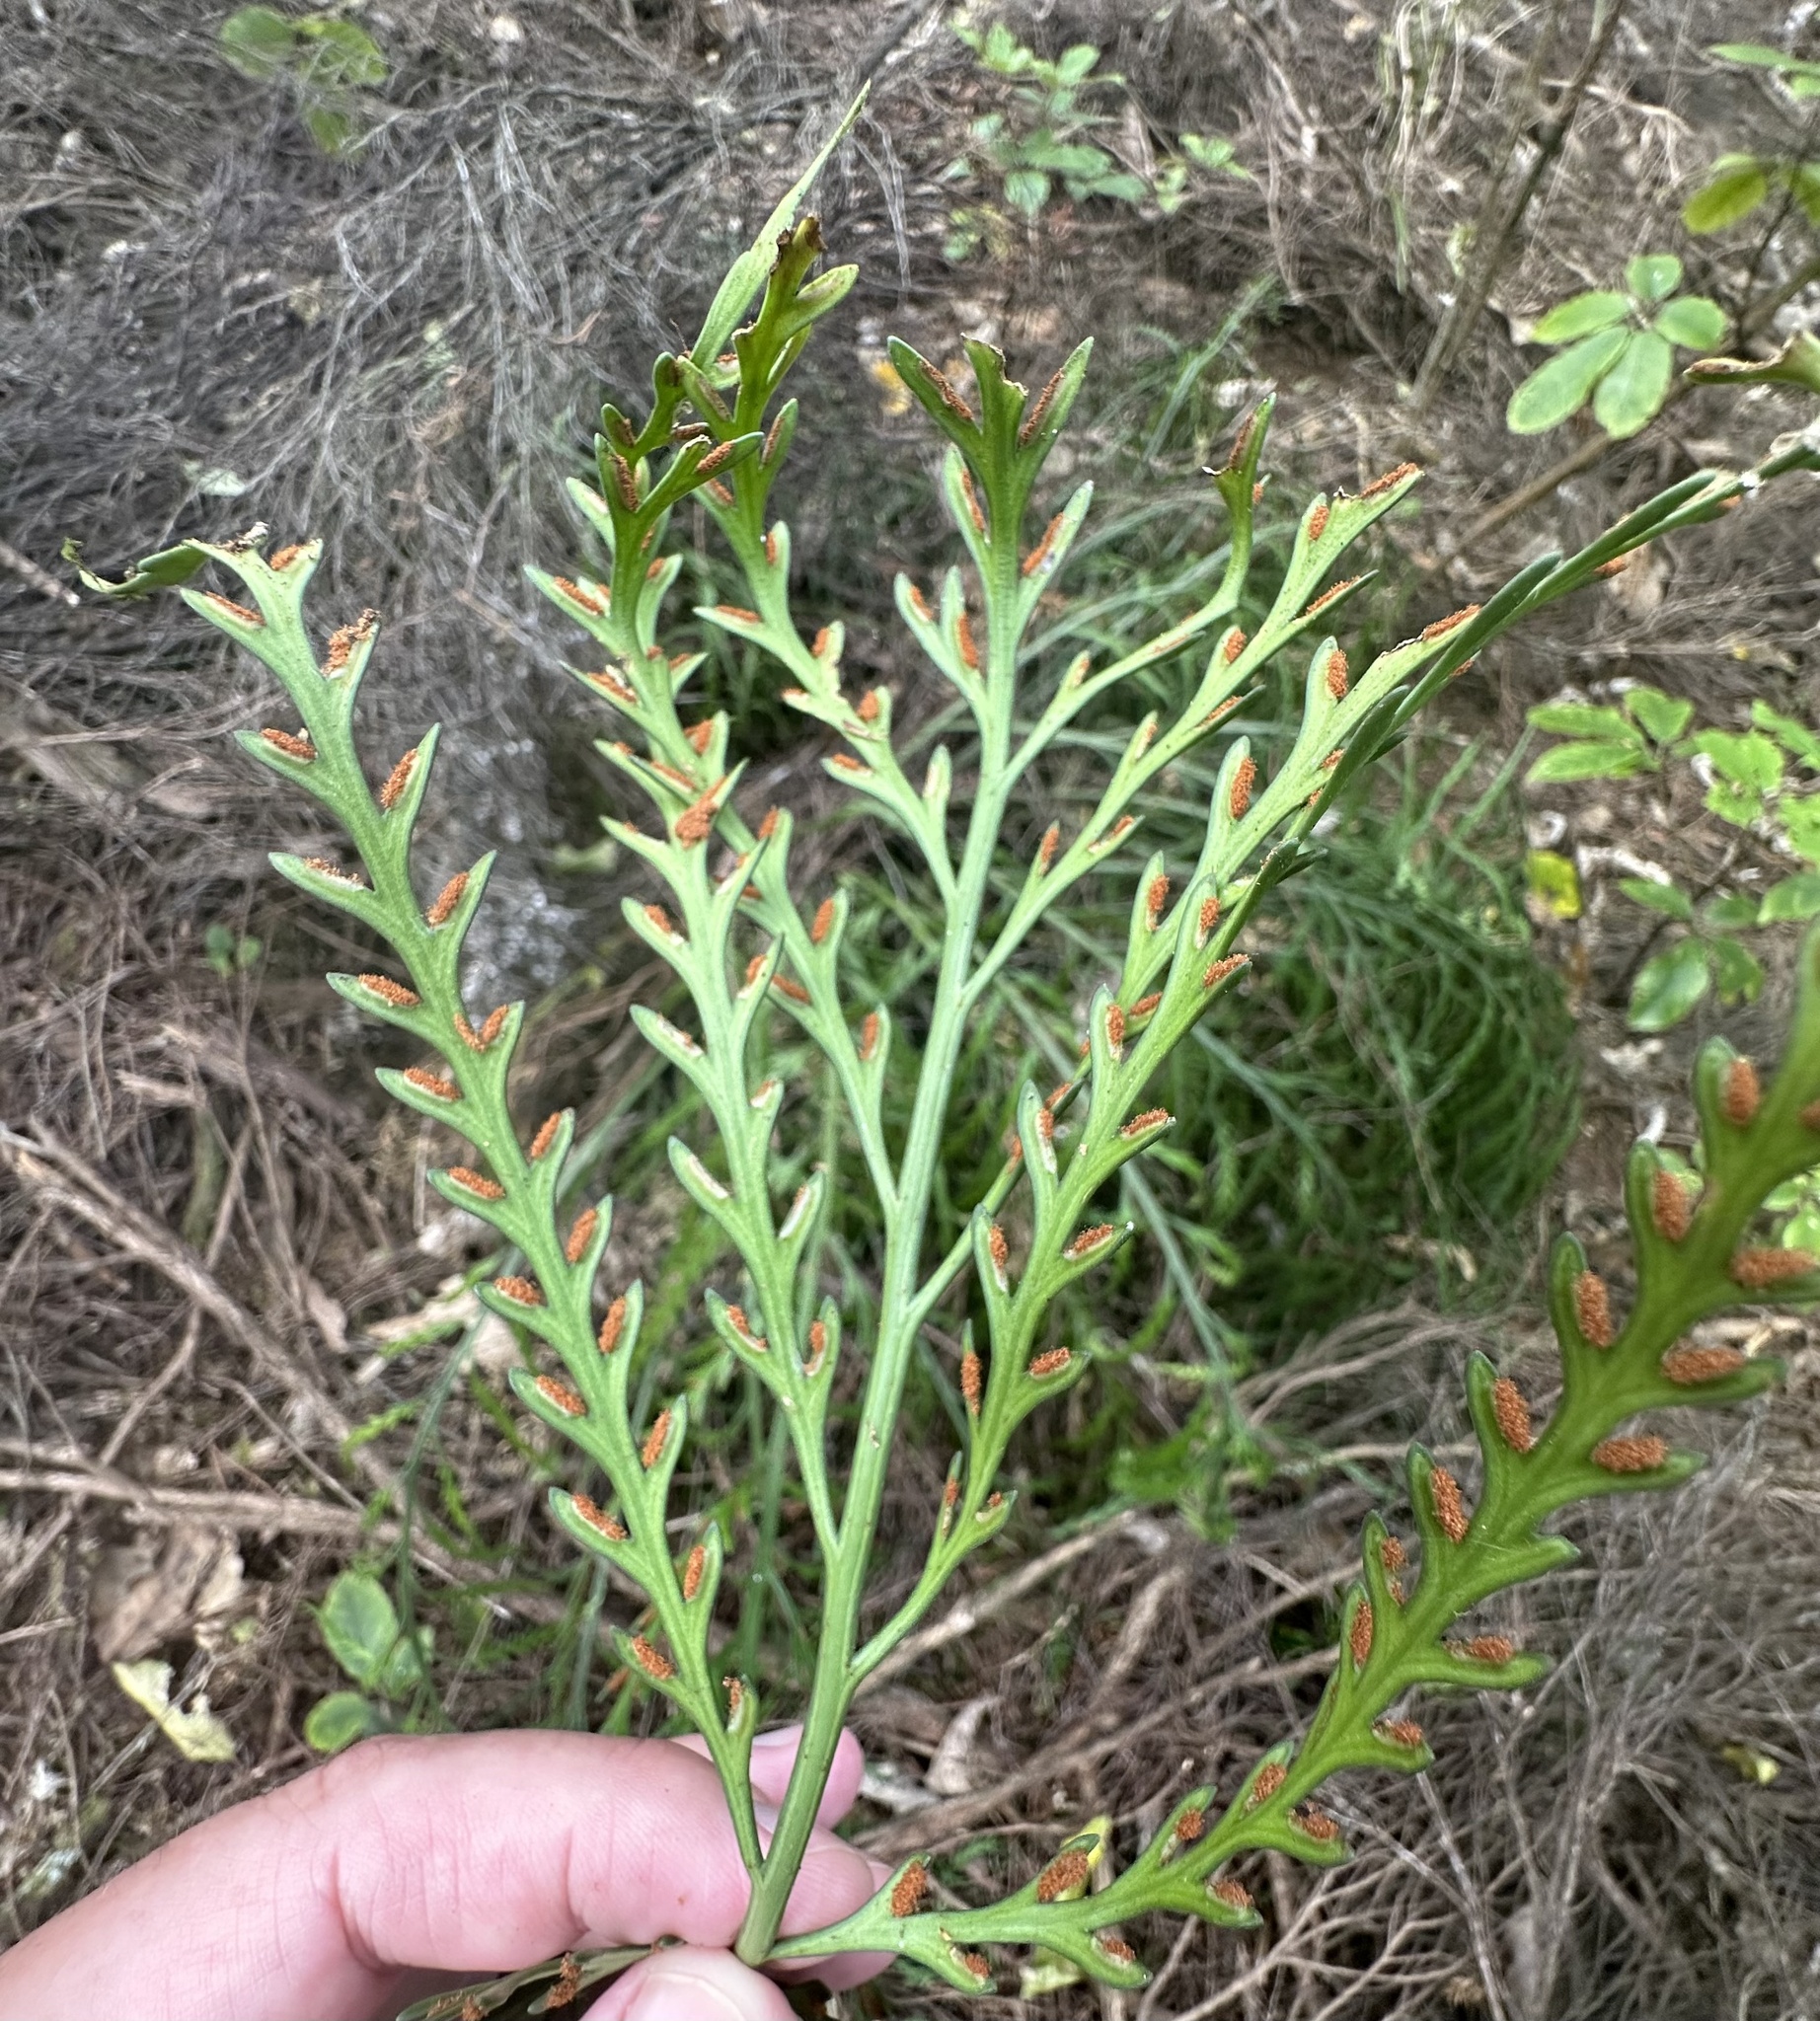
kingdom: Plantae
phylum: Tracheophyta
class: Polypodiopsida
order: Polypodiales
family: Aspleniaceae
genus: Asplenium
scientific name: Asplenium flaccidum
